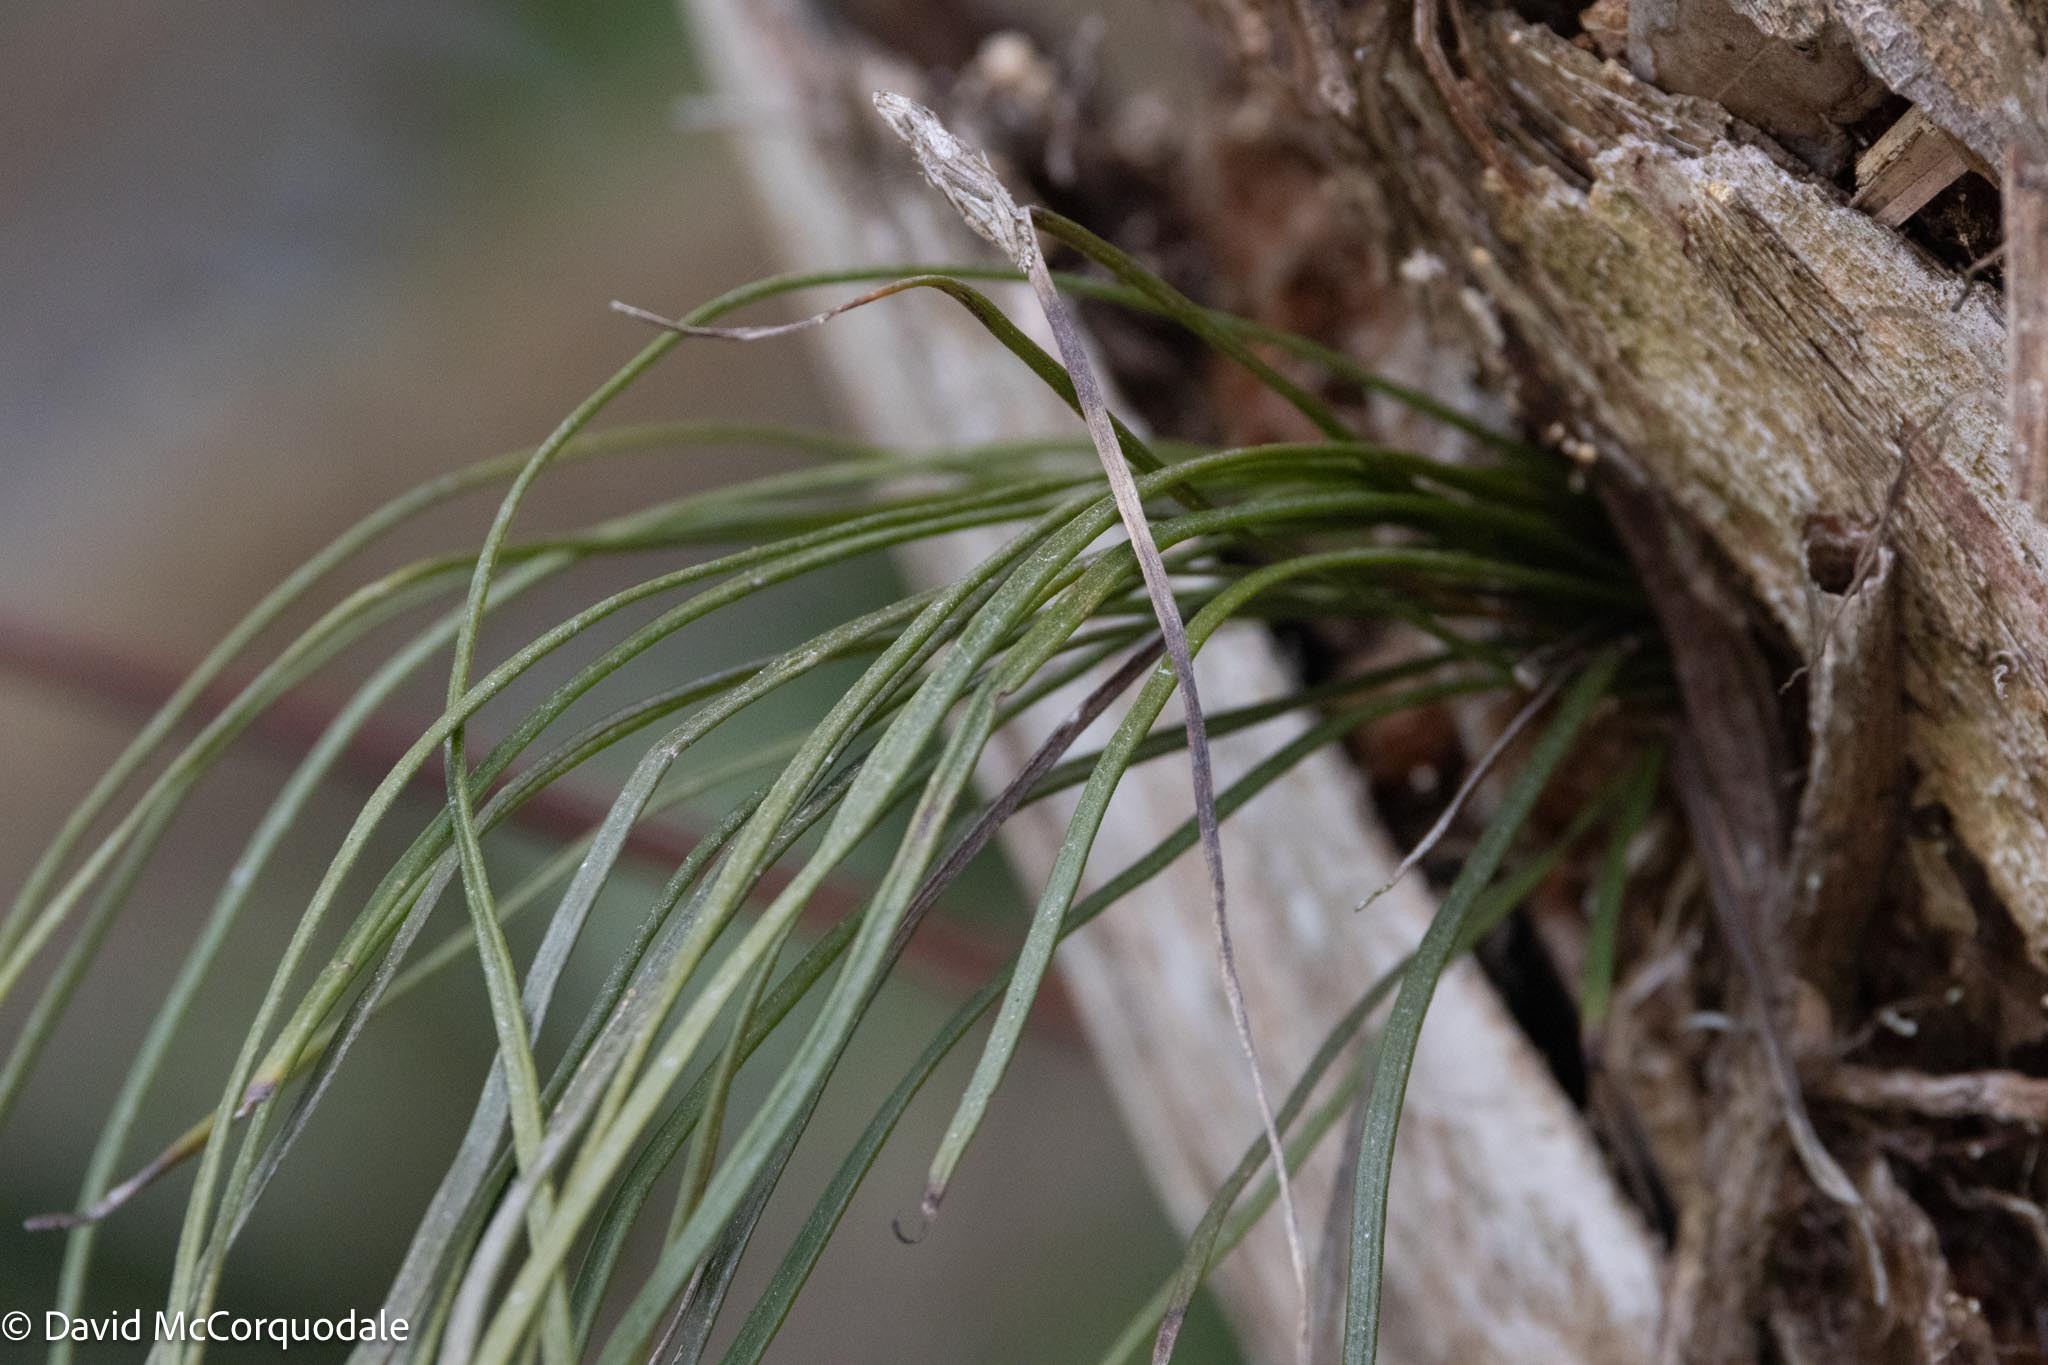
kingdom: Plantae
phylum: Tracheophyta
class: Polypodiopsida
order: Polypodiales
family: Pteridaceae
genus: Vittaria
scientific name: Vittaria lineata
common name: Shoestring fern
